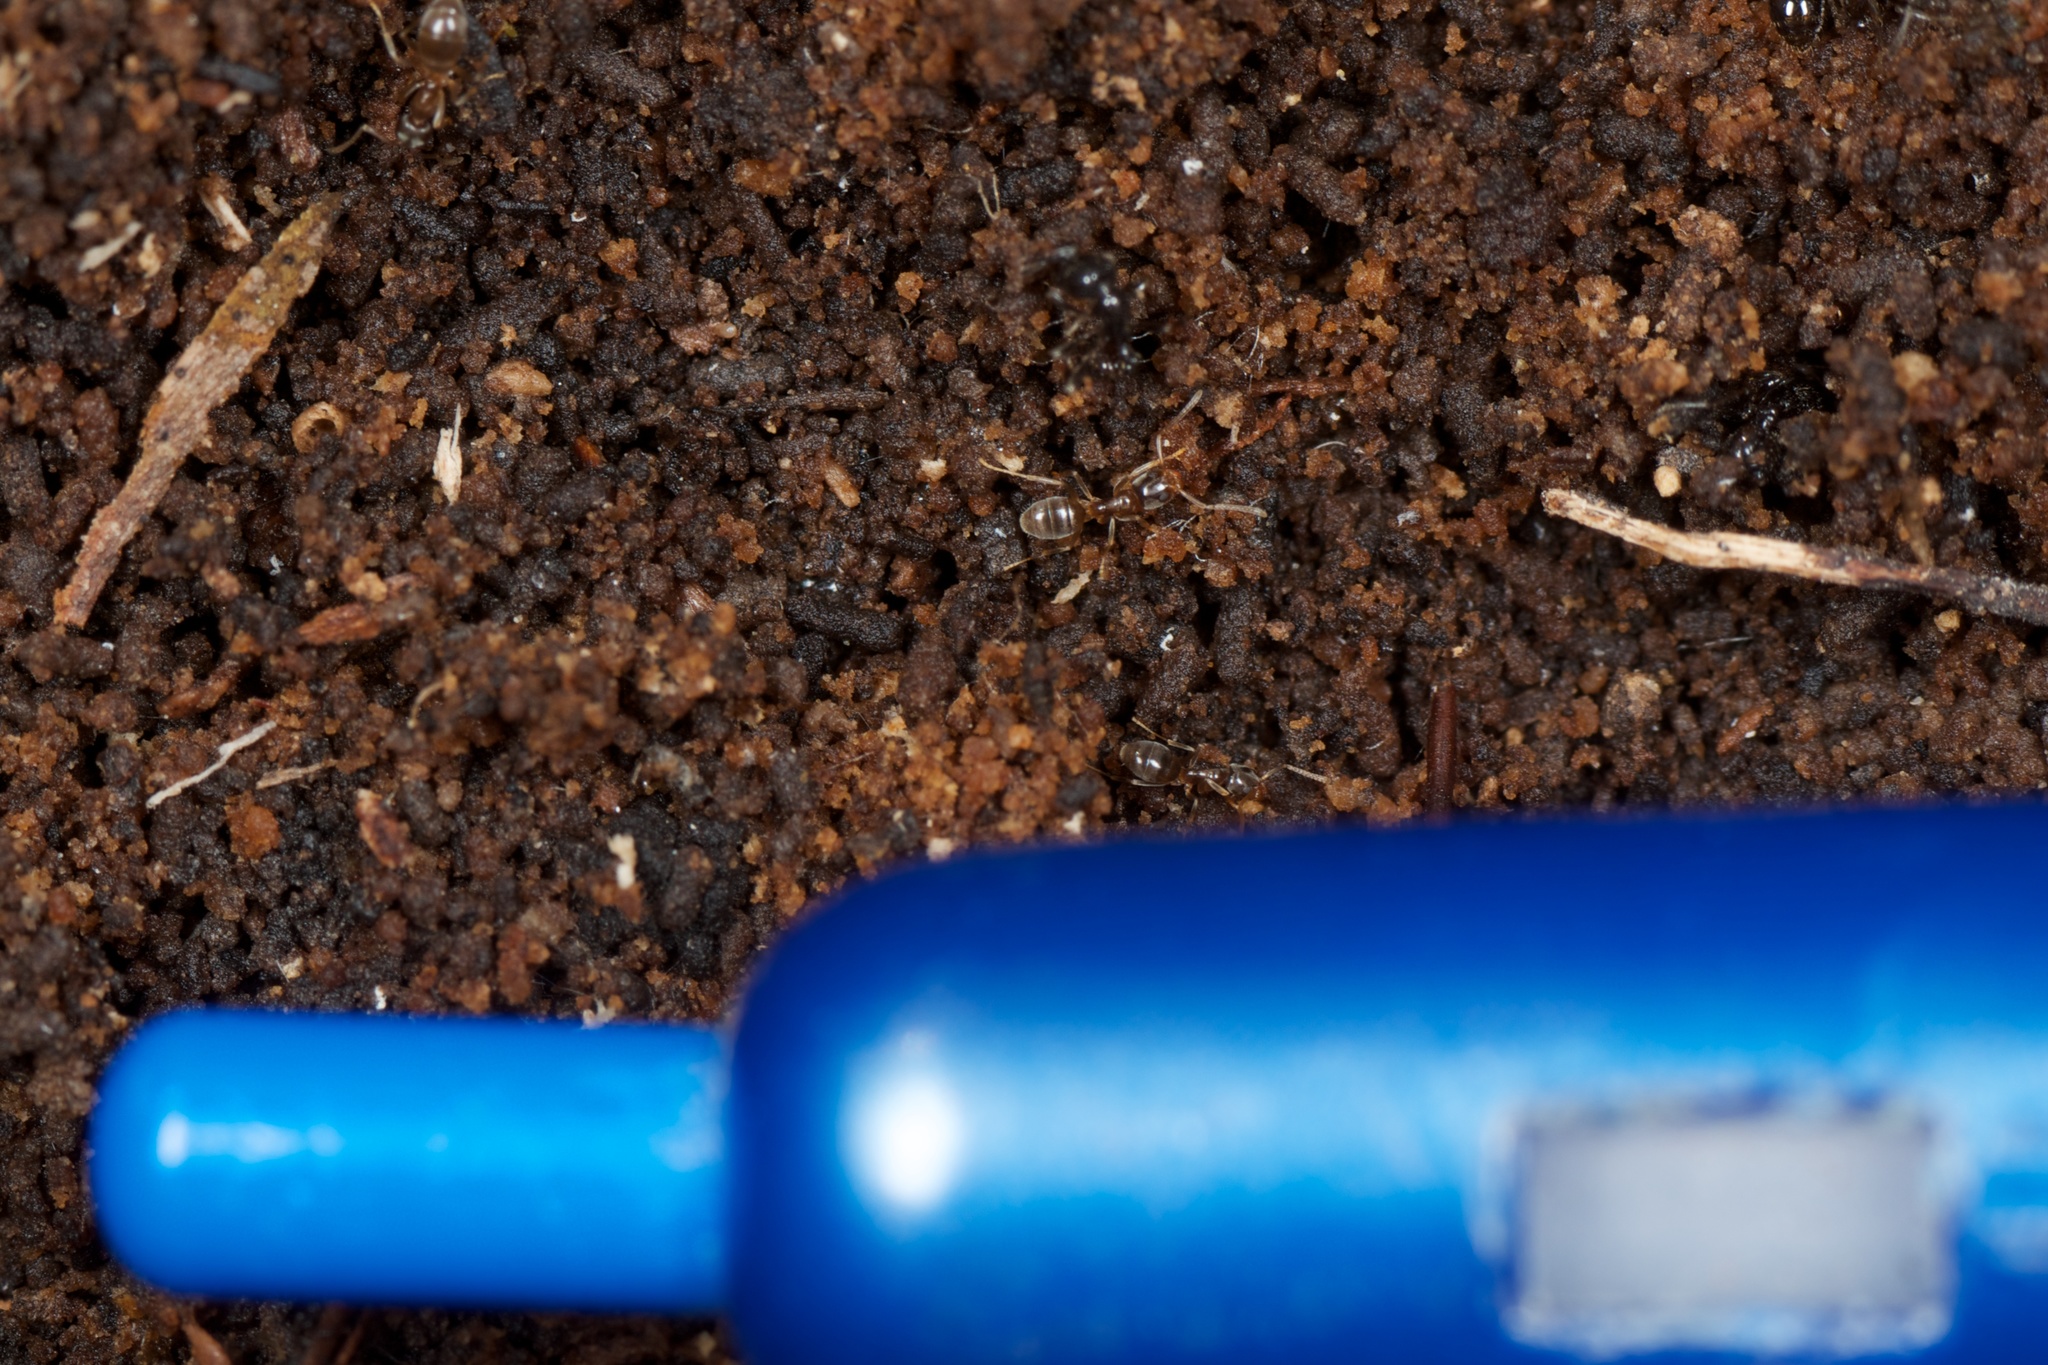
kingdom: Animalia
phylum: Arthropoda
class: Insecta
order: Hymenoptera
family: Formicidae
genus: Doleromyrma
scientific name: Doleromyrma darwiniana
